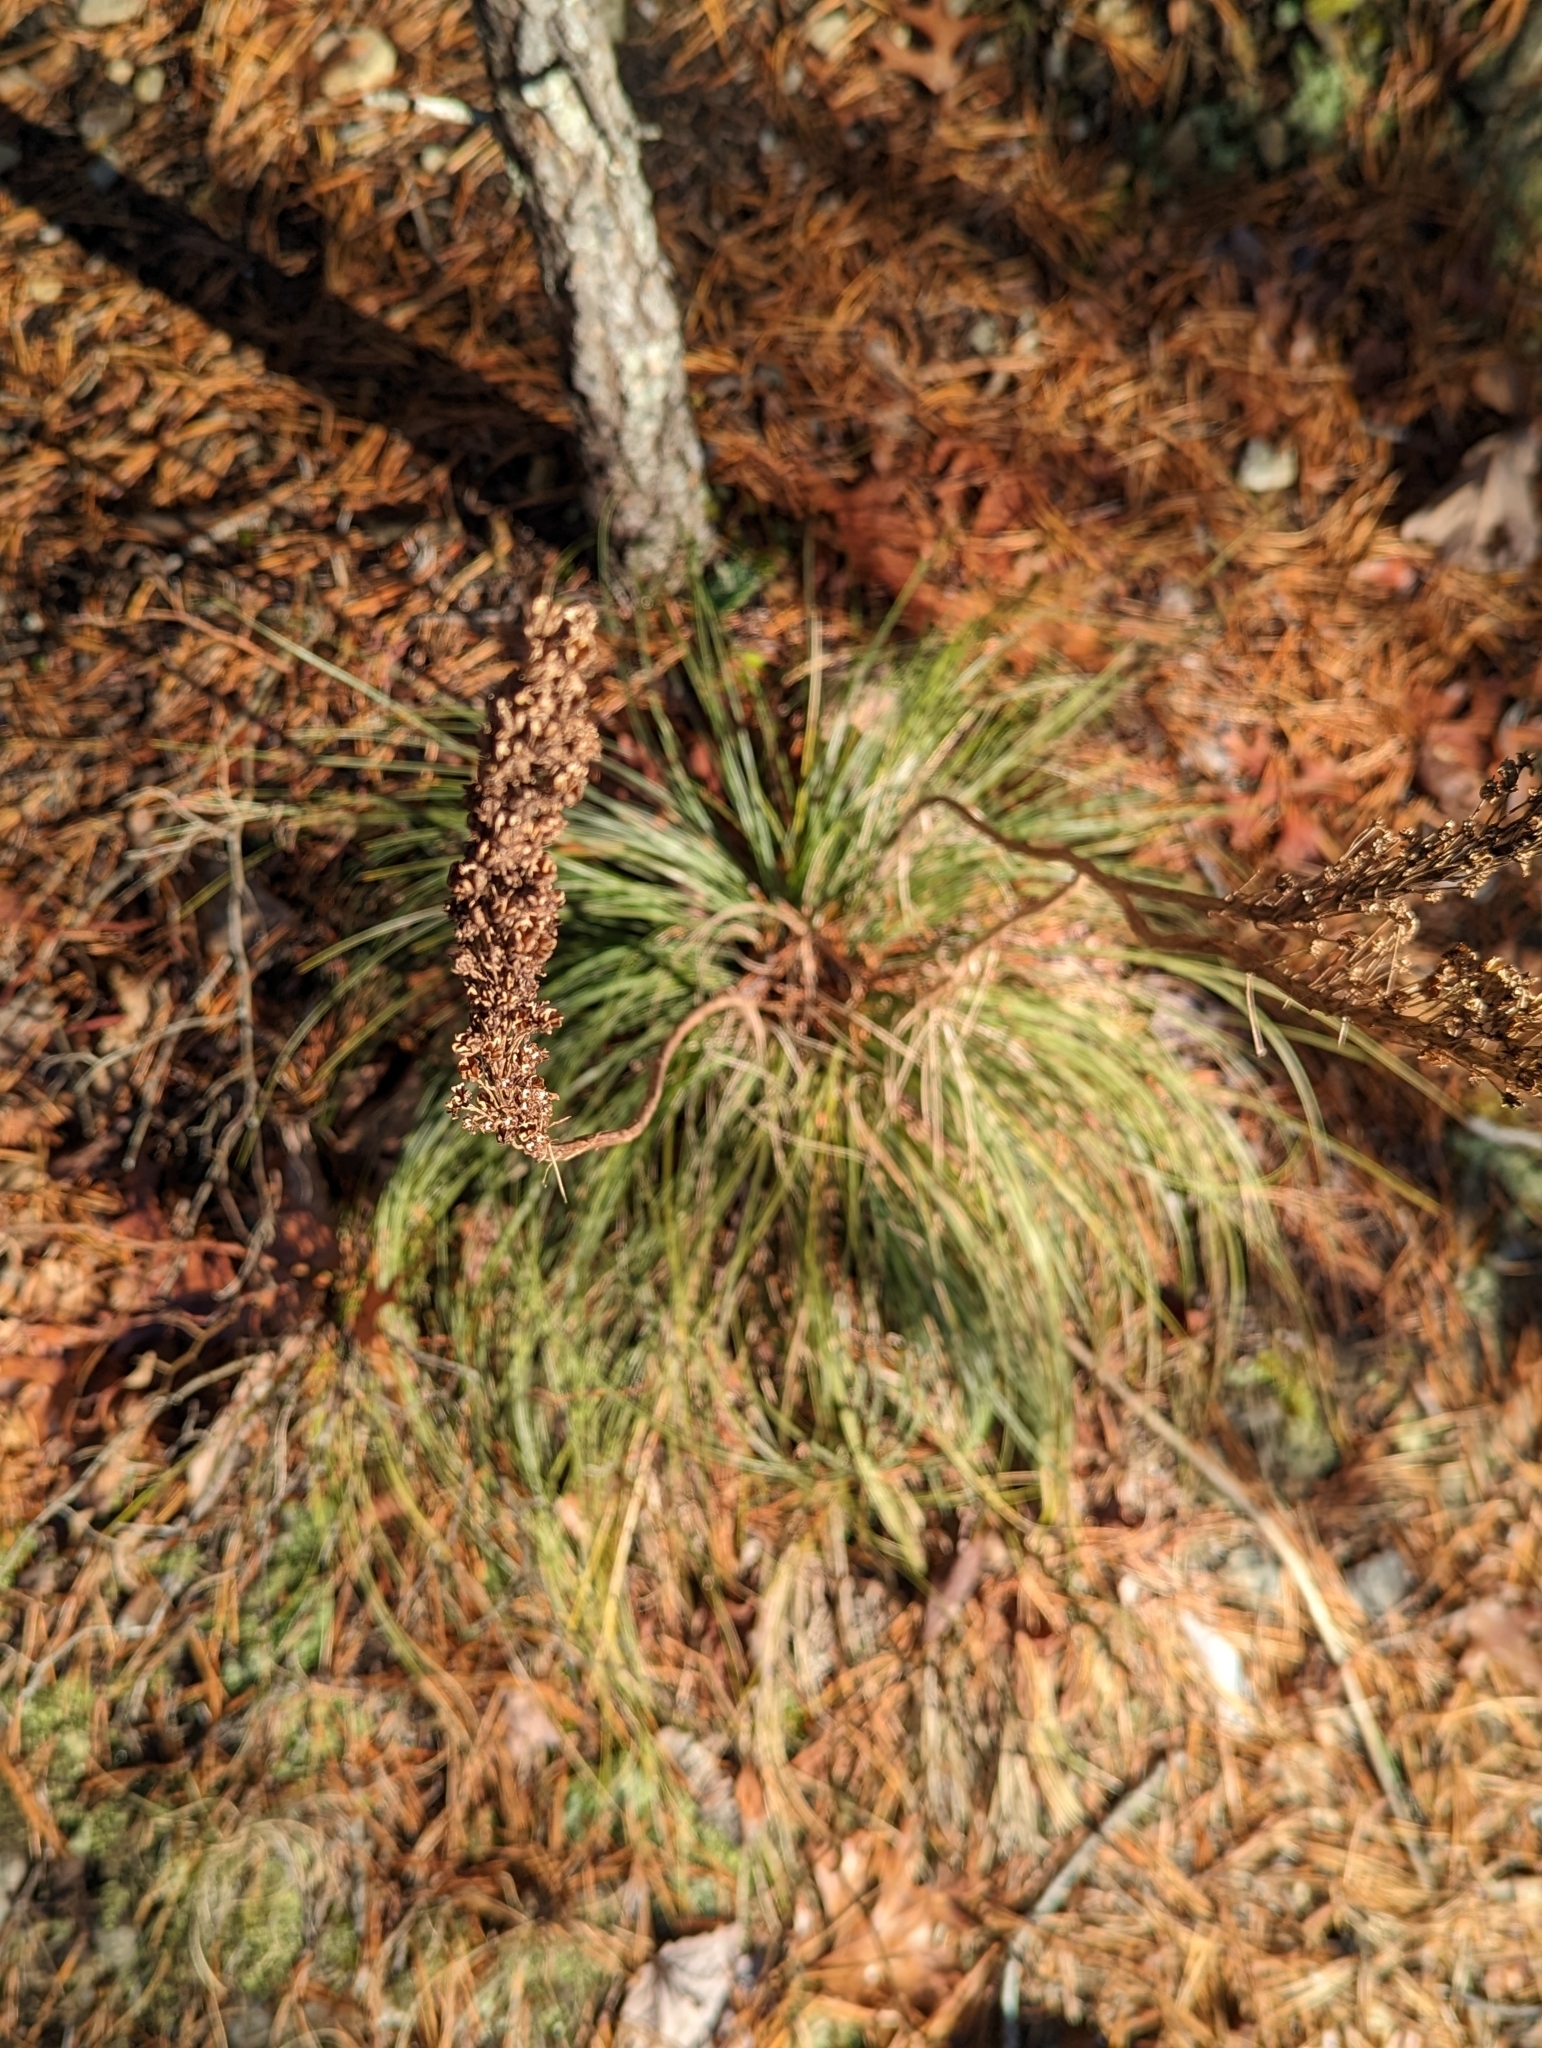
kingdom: Plantae
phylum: Tracheophyta
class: Liliopsida
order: Liliales
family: Melanthiaceae
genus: Xerophyllum
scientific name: Xerophyllum asphodeloides
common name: Mountain-asphodel
